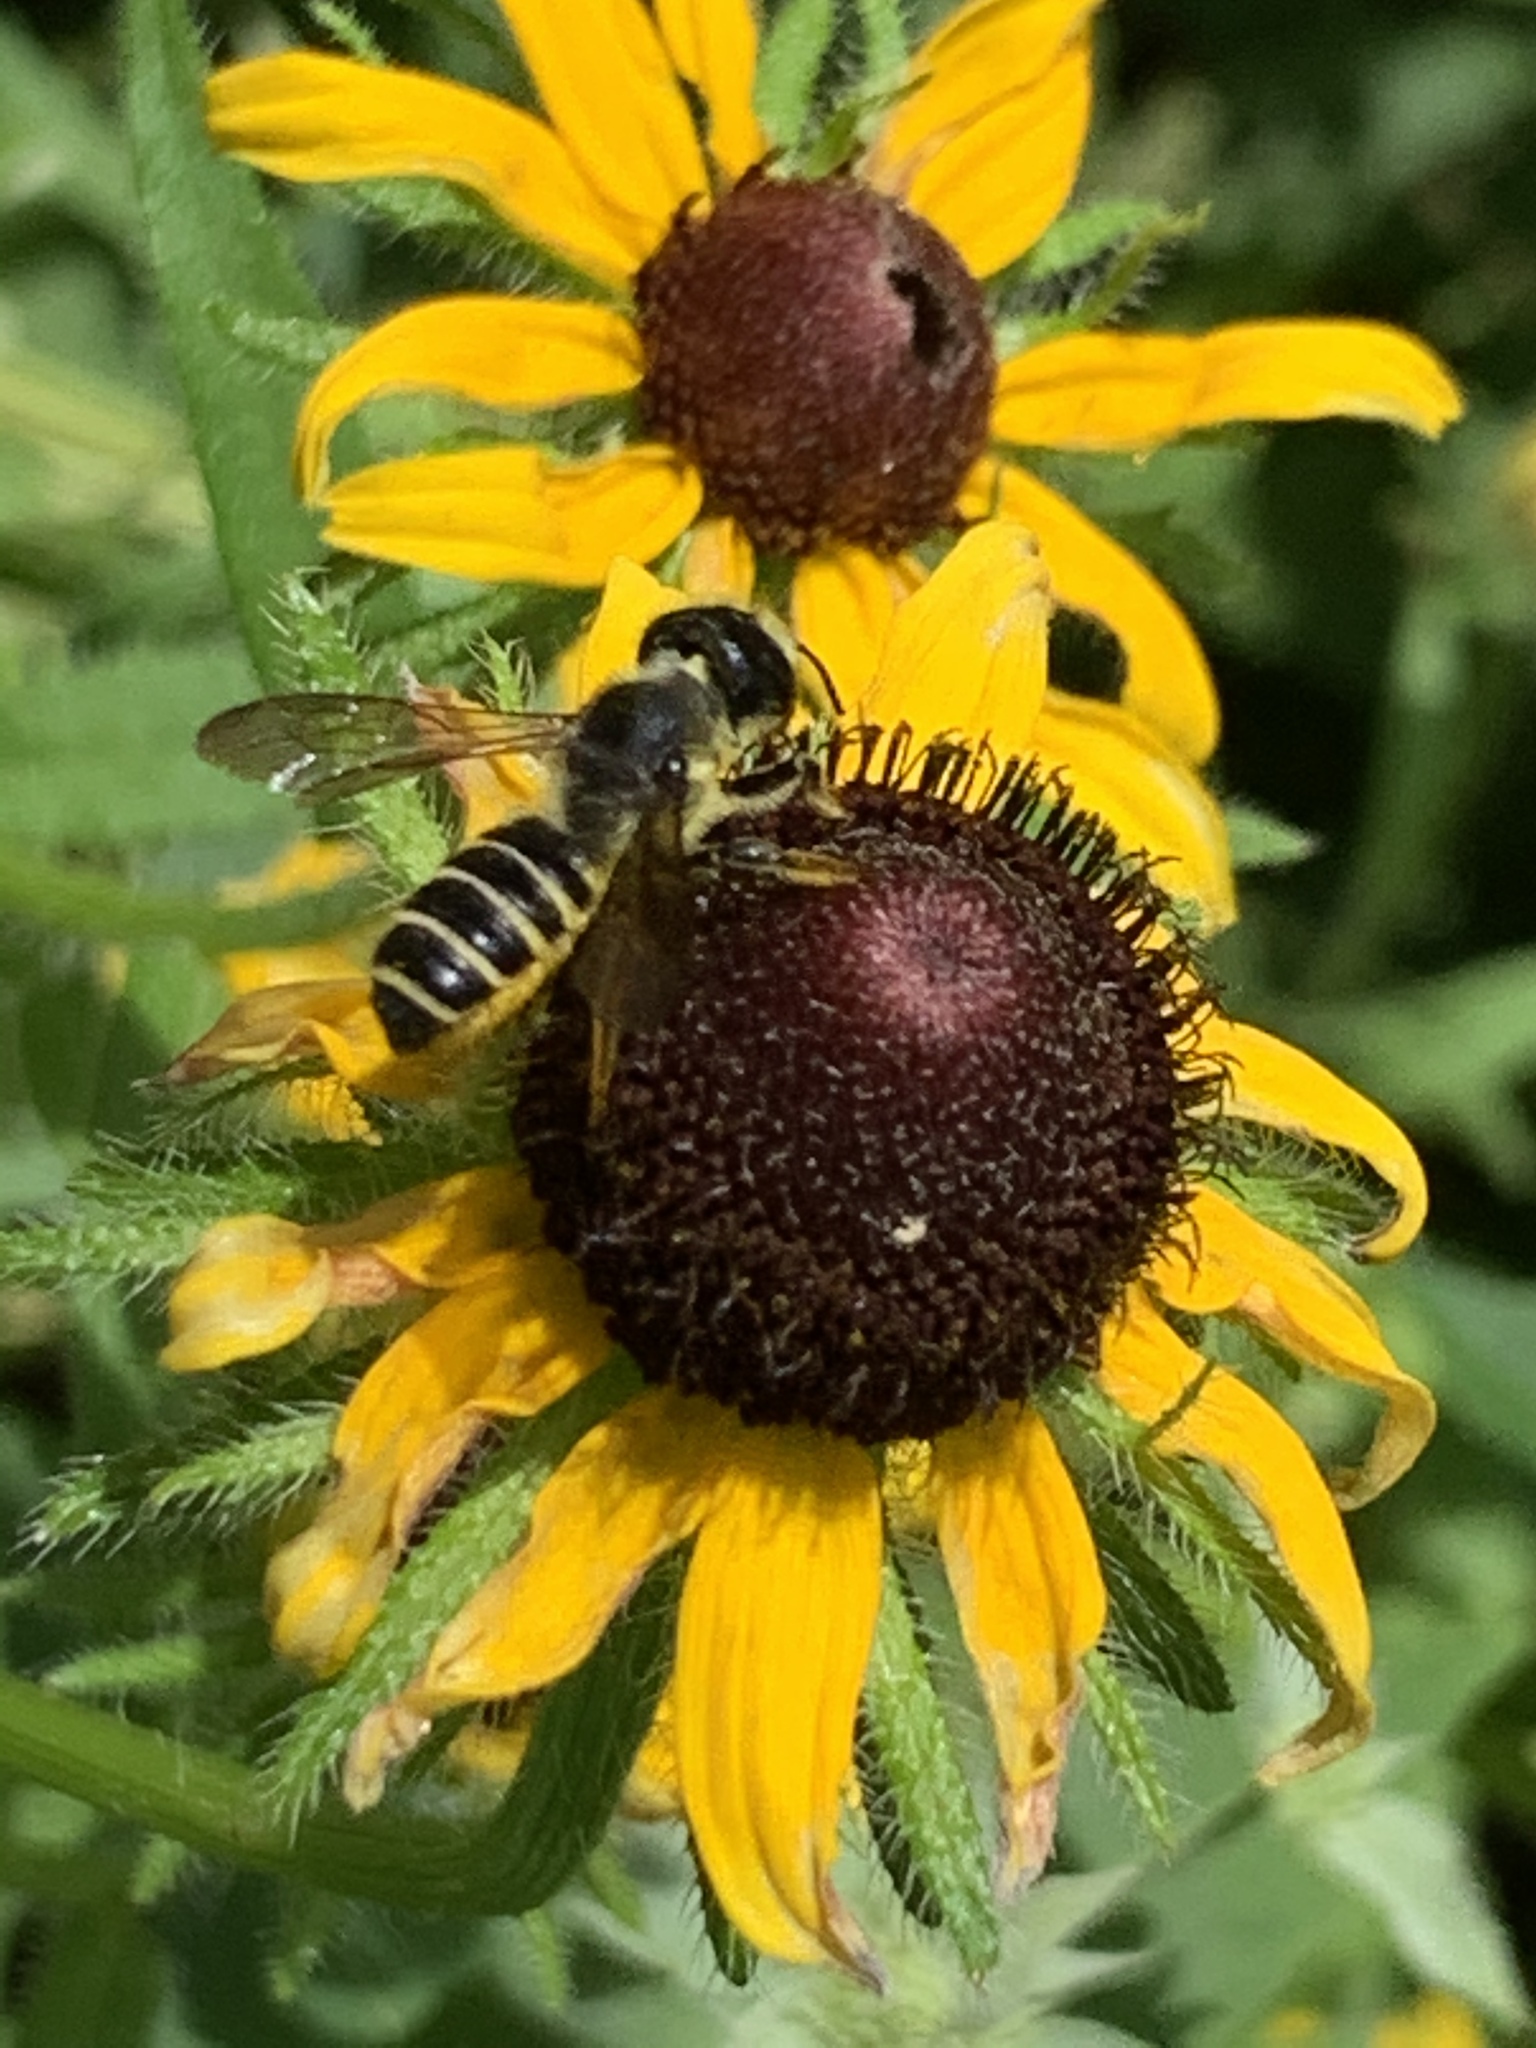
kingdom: Animalia
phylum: Arthropoda
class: Insecta
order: Hymenoptera
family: Megachilidae
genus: Megachile
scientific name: Megachile pugnata
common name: Pugnacious leafcutter bee
